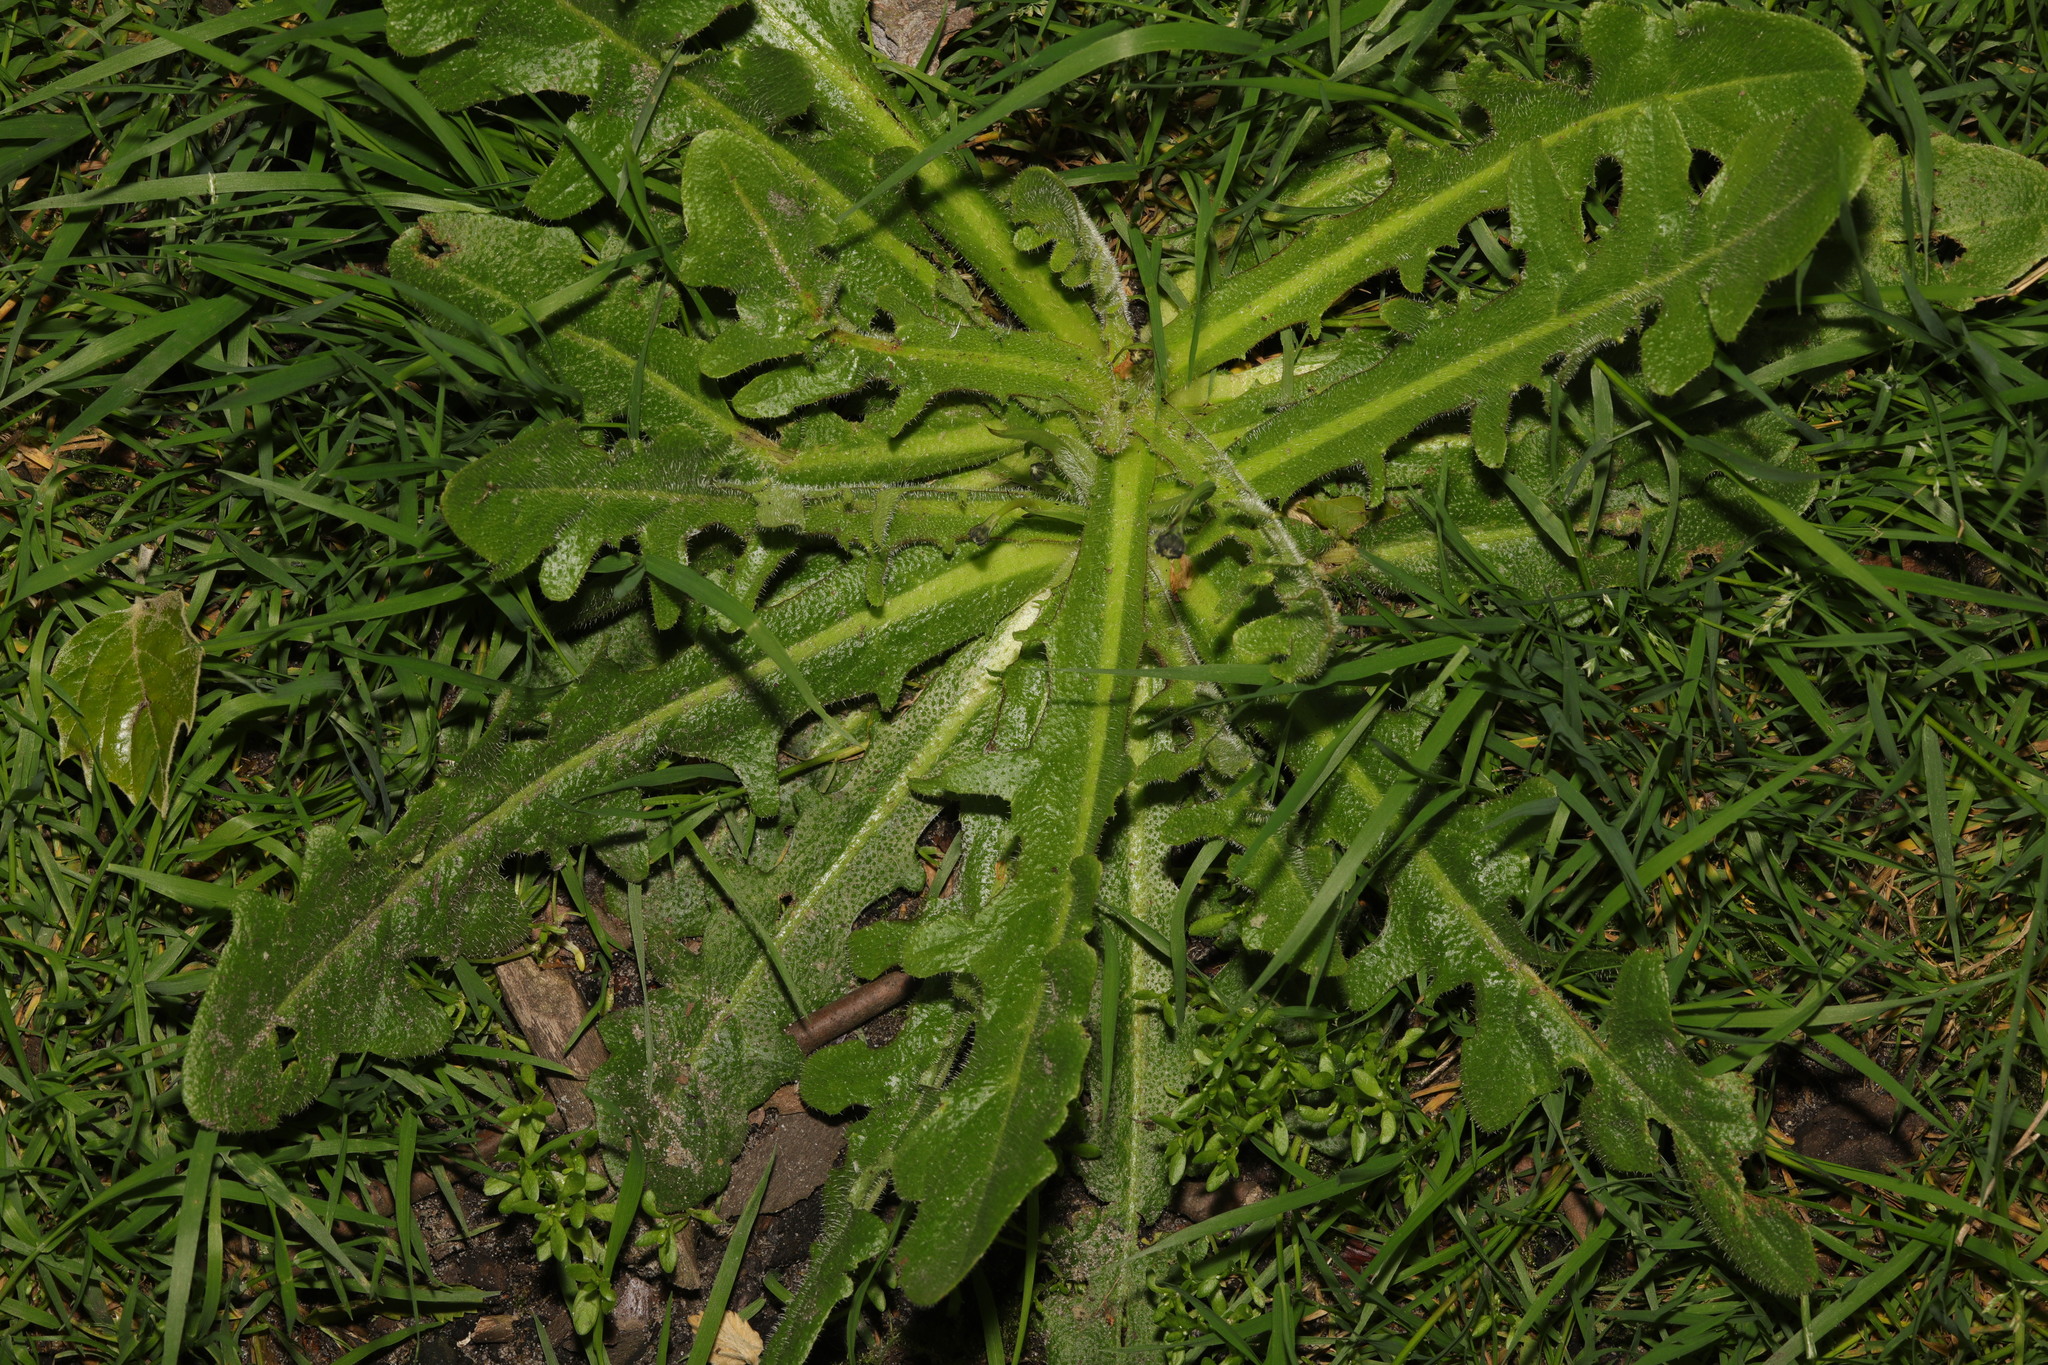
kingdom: Plantae
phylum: Tracheophyta
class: Magnoliopsida
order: Asterales
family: Asteraceae
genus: Hypochaeris
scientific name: Hypochaeris radicata
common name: Flatweed
